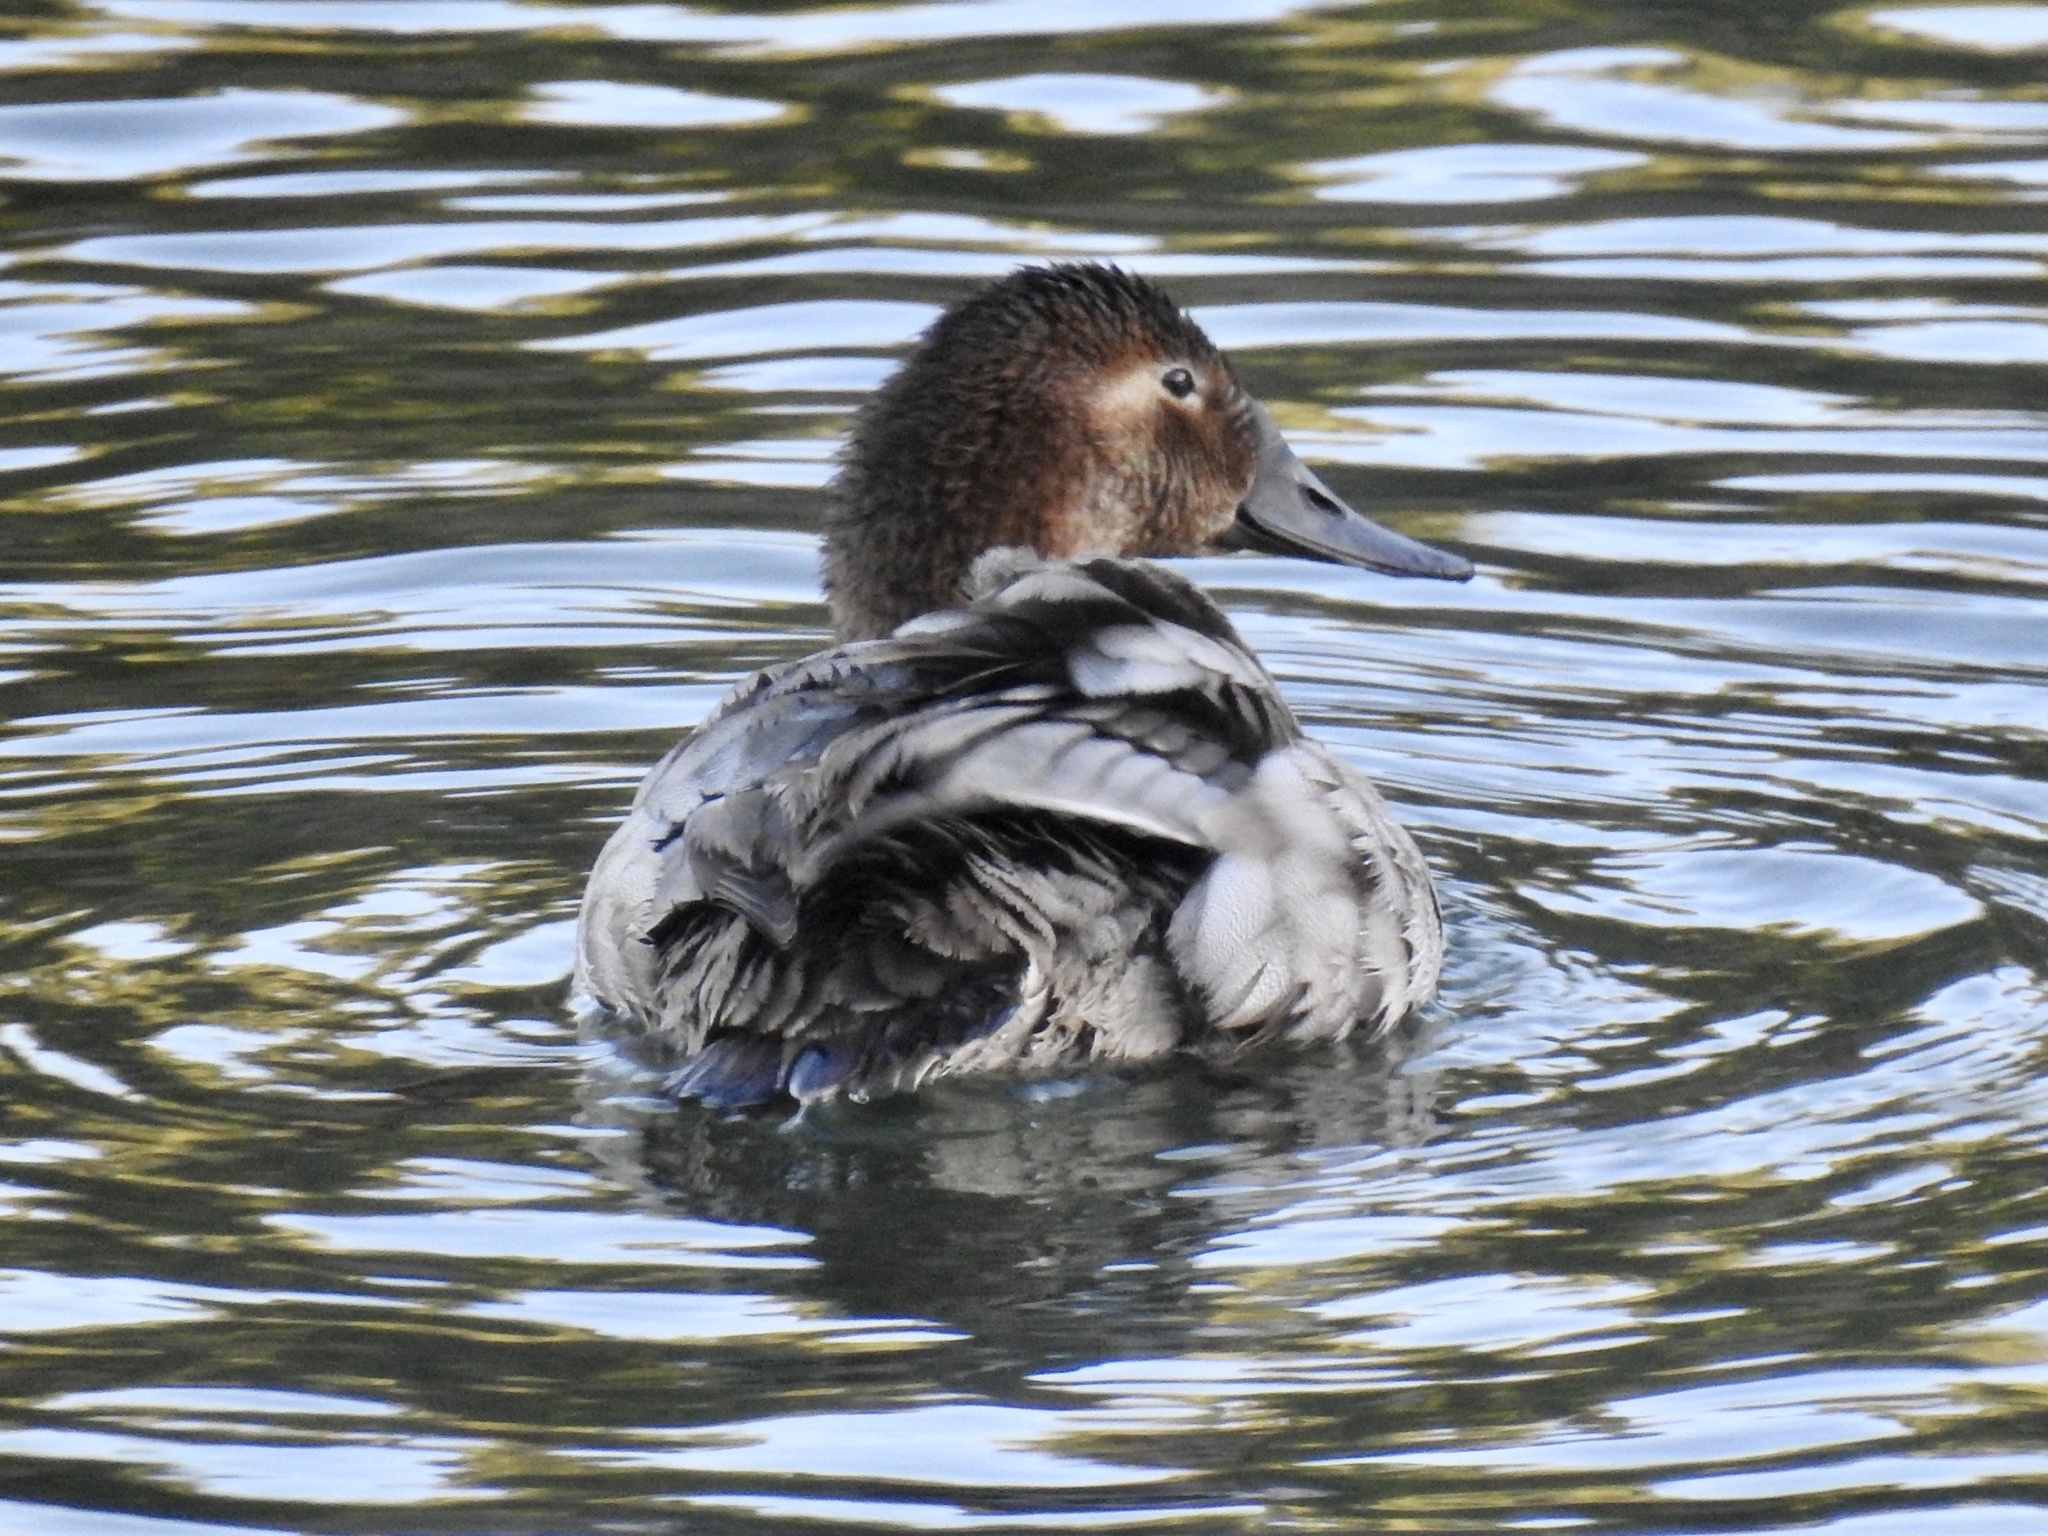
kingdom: Animalia
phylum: Chordata
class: Aves
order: Anseriformes
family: Anatidae
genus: Aythya
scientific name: Aythya valisineria
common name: Canvasback
